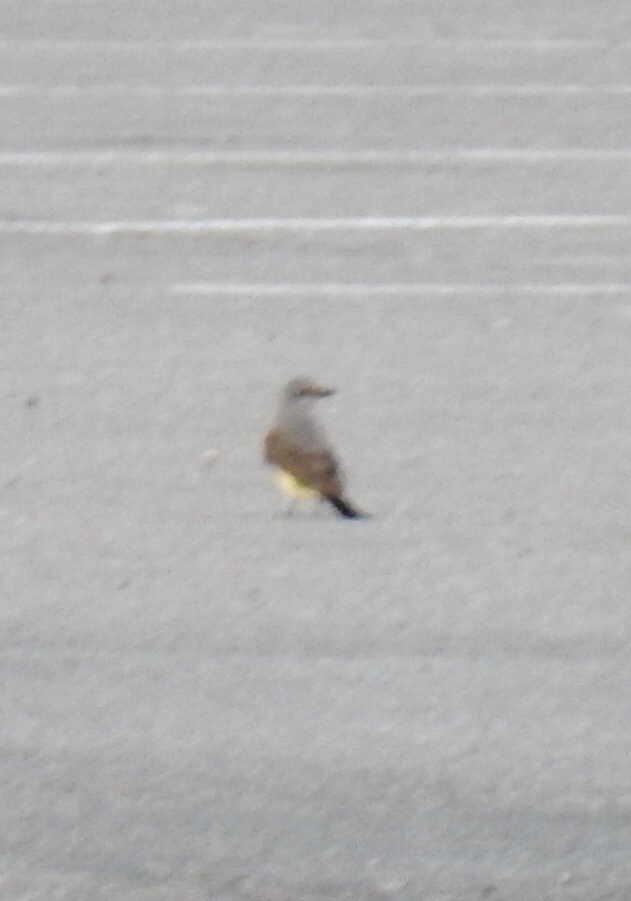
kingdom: Animalia
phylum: Chordata
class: Aves
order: Passeriformes
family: Tyrannidae
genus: Tyrannus
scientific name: Tyrannus verticalis
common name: Western kingbird
